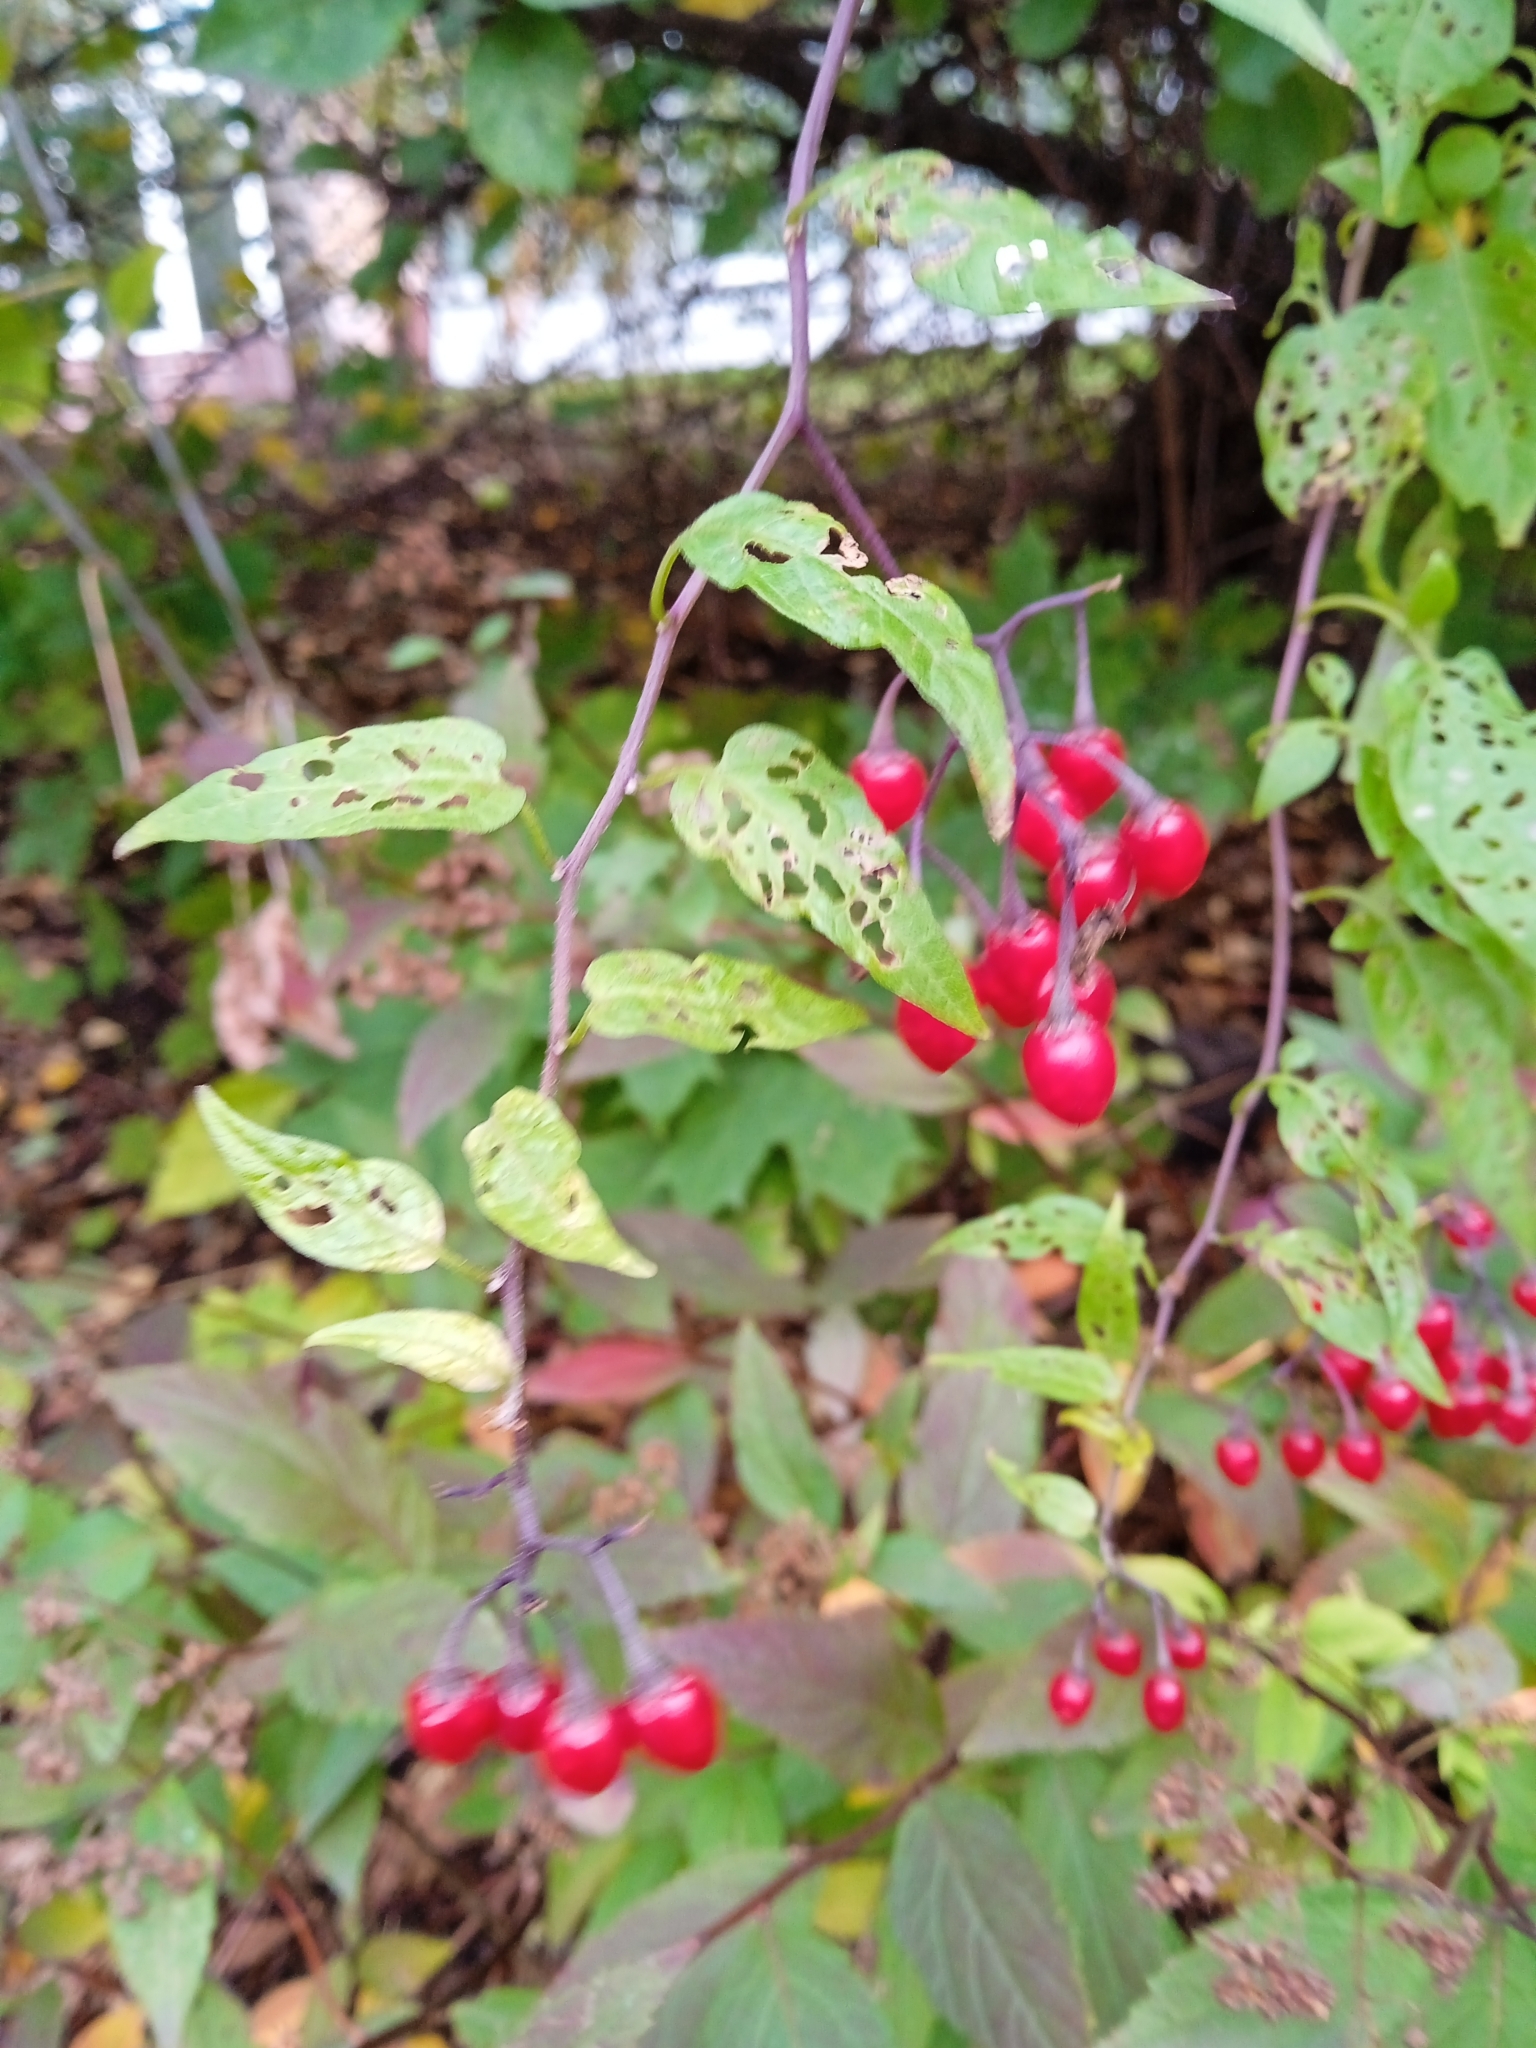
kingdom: Plantae
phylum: Tracheophyta
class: Magnoliopsida
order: Solanales
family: Solanaceae
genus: Solanum
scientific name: Solanum dulcamara
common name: Climbing nightshade
